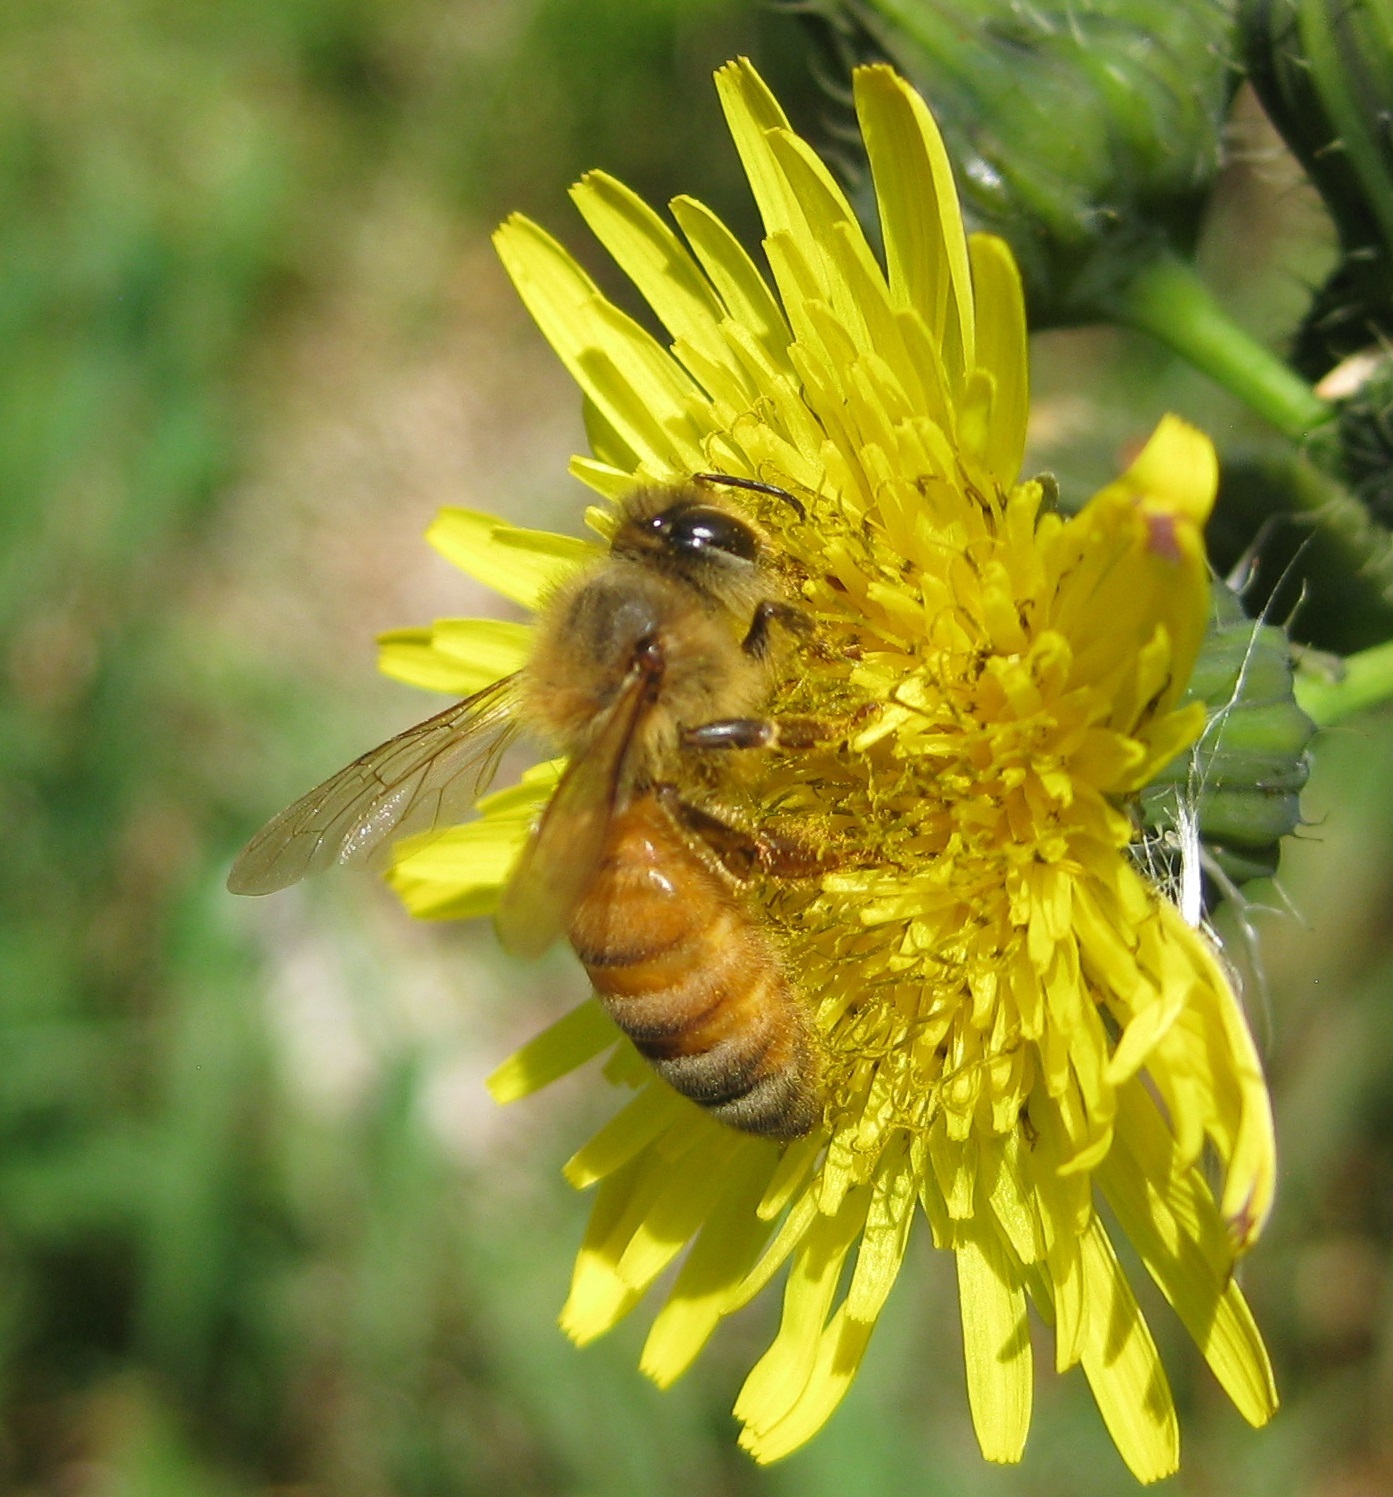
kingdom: Animalia
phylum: Arthropoda
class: Insecta
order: Hymenoptera
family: Apidae
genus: Apis
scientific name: Apis mellifera
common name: Honey bee
